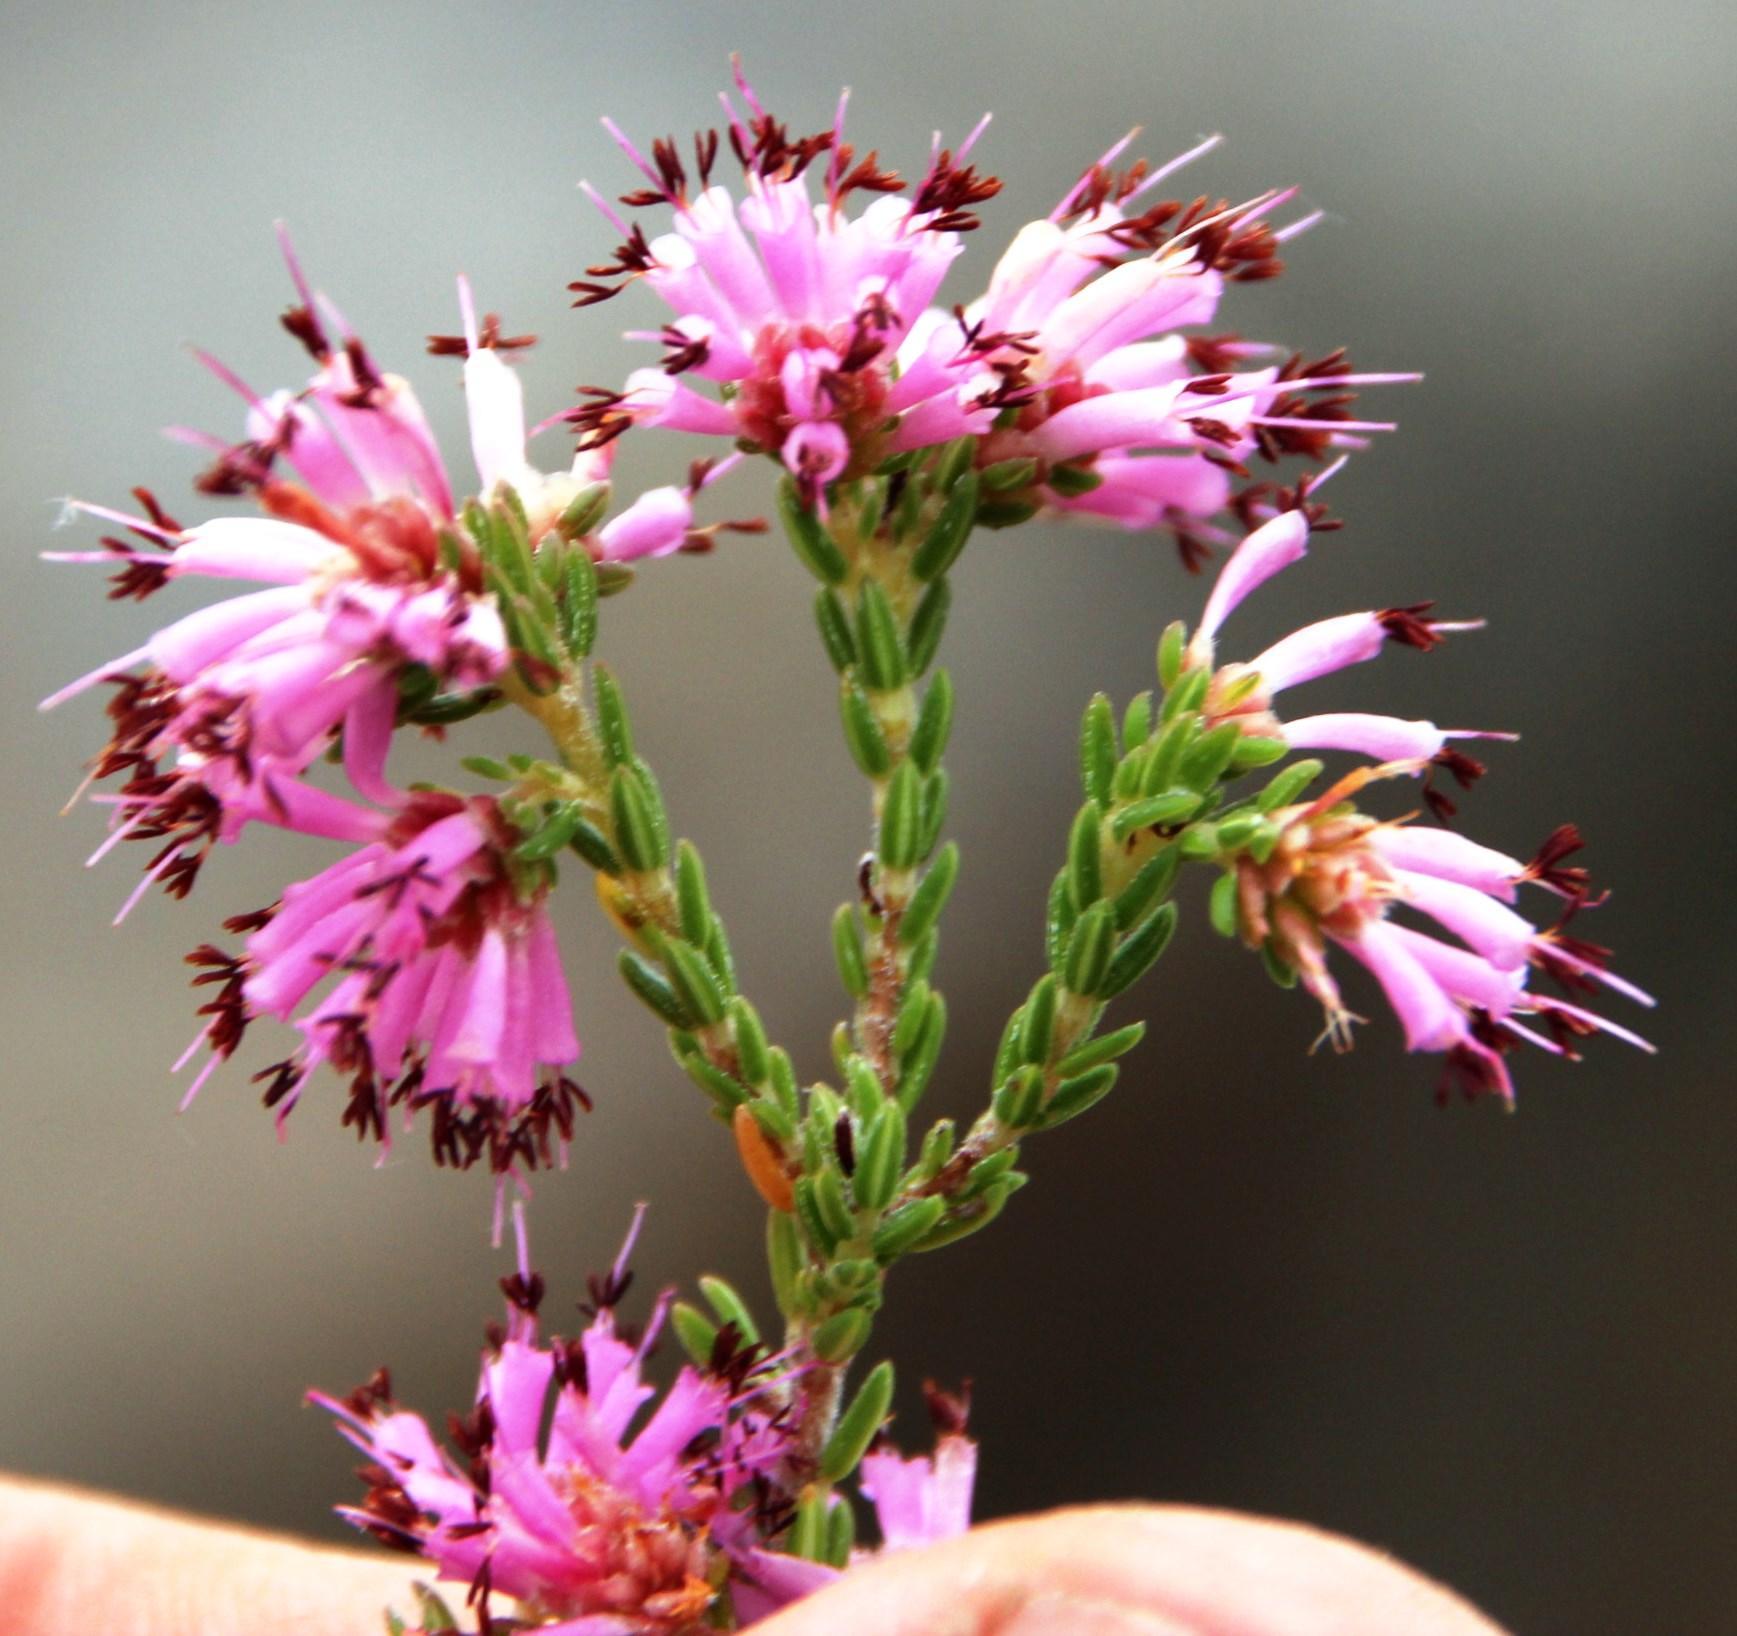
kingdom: Plantae
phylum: Tracheophyta
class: Magnoliopsida
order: Ericales
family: Ericaceae
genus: Erica
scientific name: Erica labialis
